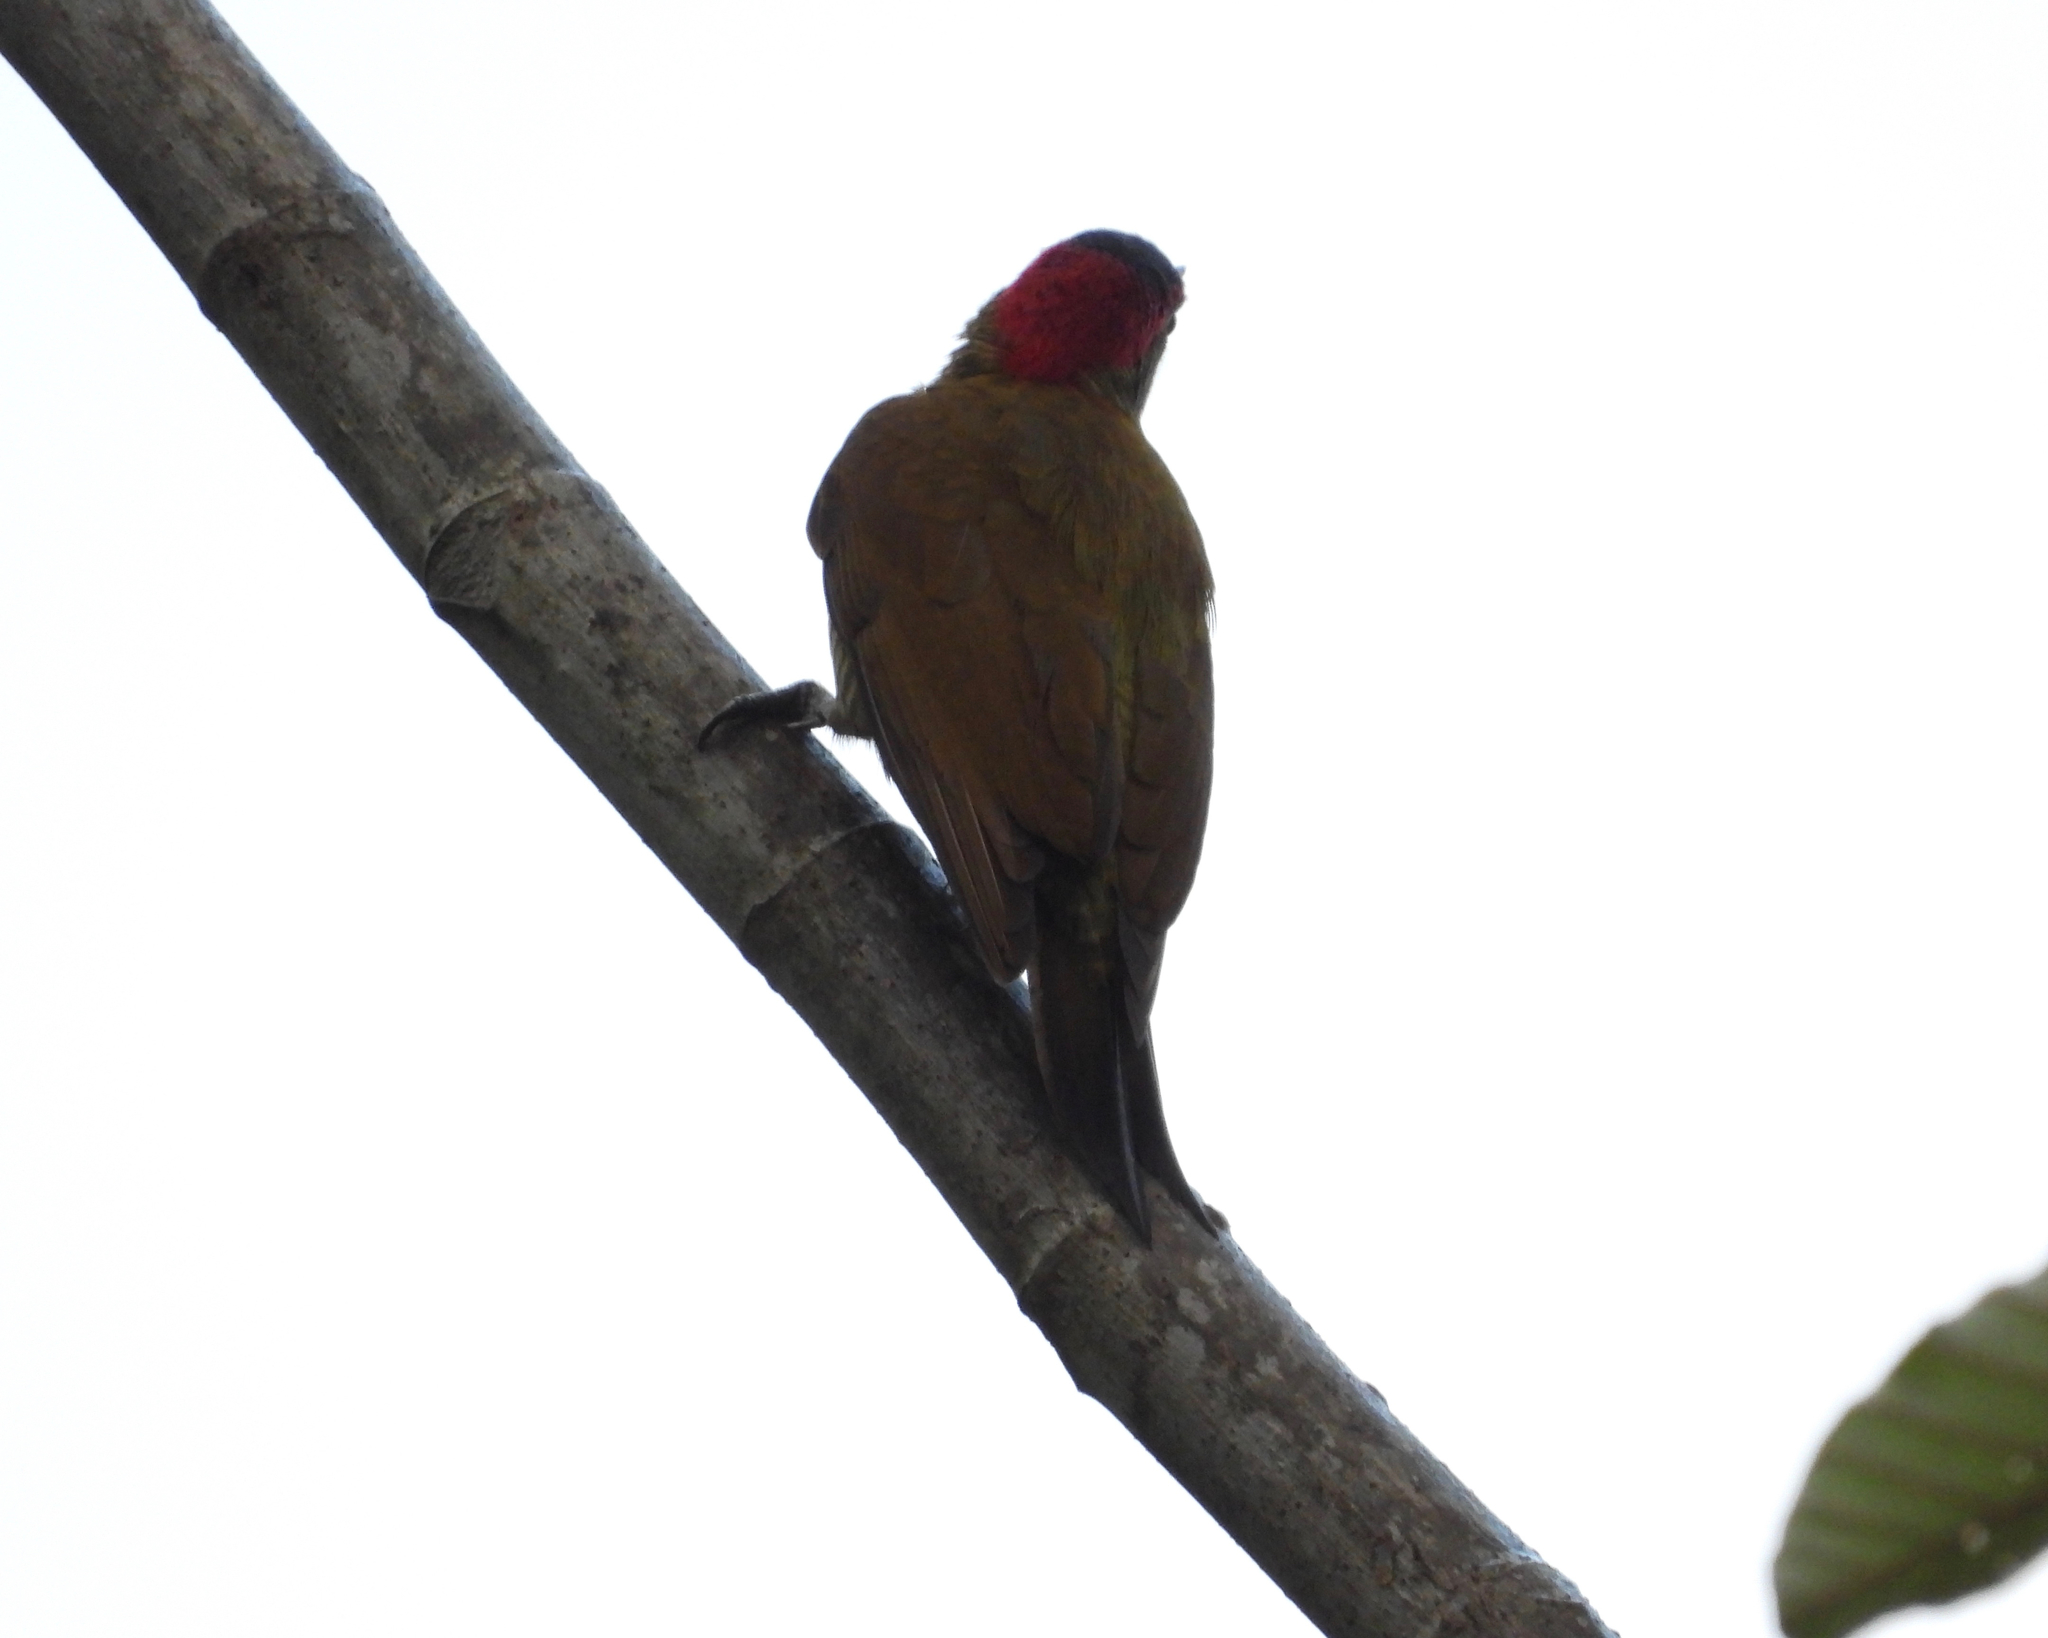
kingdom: Animalia
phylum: Chordata
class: Aves
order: Piciformes
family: Picidae
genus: Colaptes
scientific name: Colaptes rubiginosus
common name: Golden-olive woodpecker
